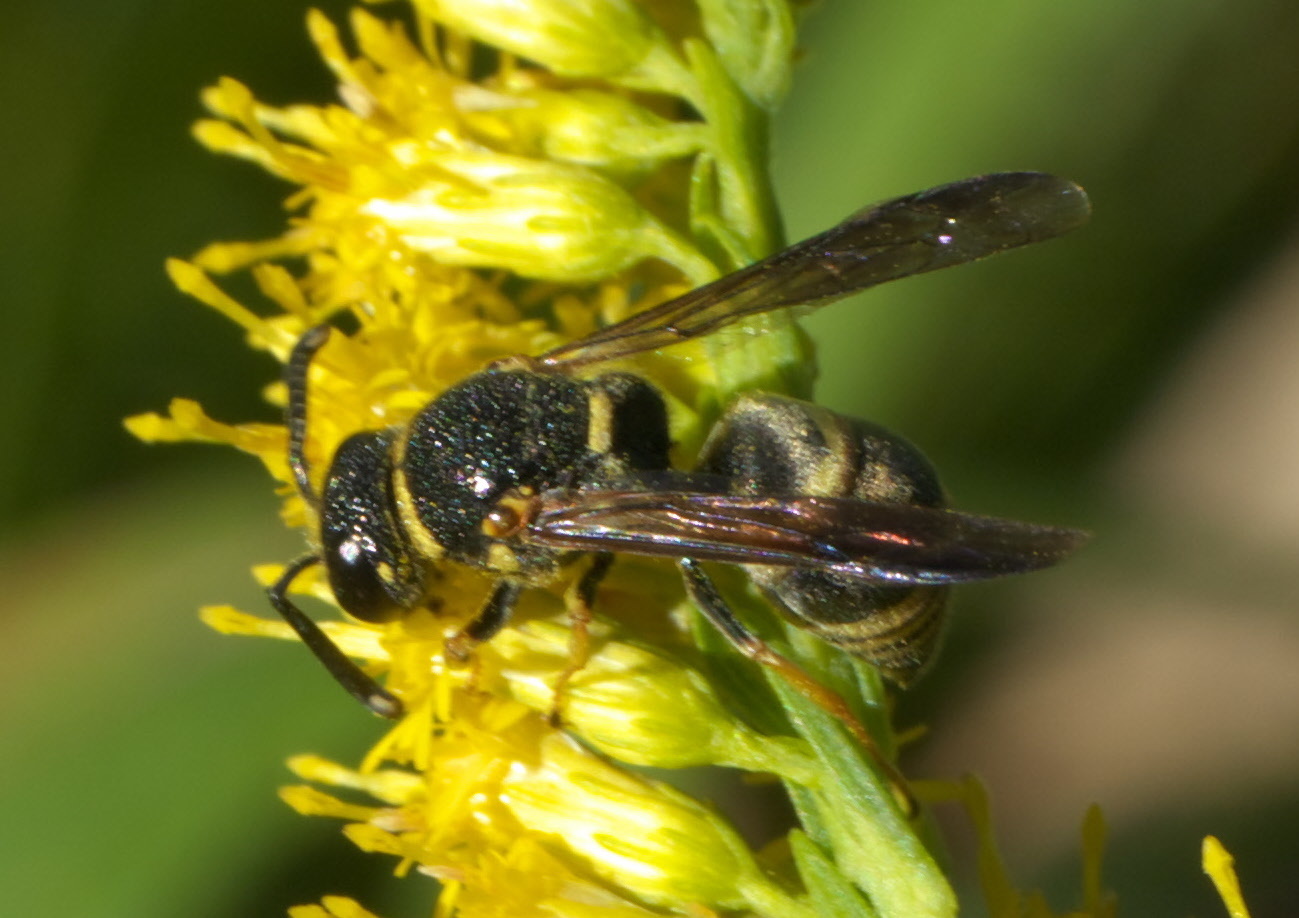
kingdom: Animalia
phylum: Arthropoda
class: Insecta
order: Hymenoptera
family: Eumenidae
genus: Euodynerus
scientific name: Euodynerus foraminatus
